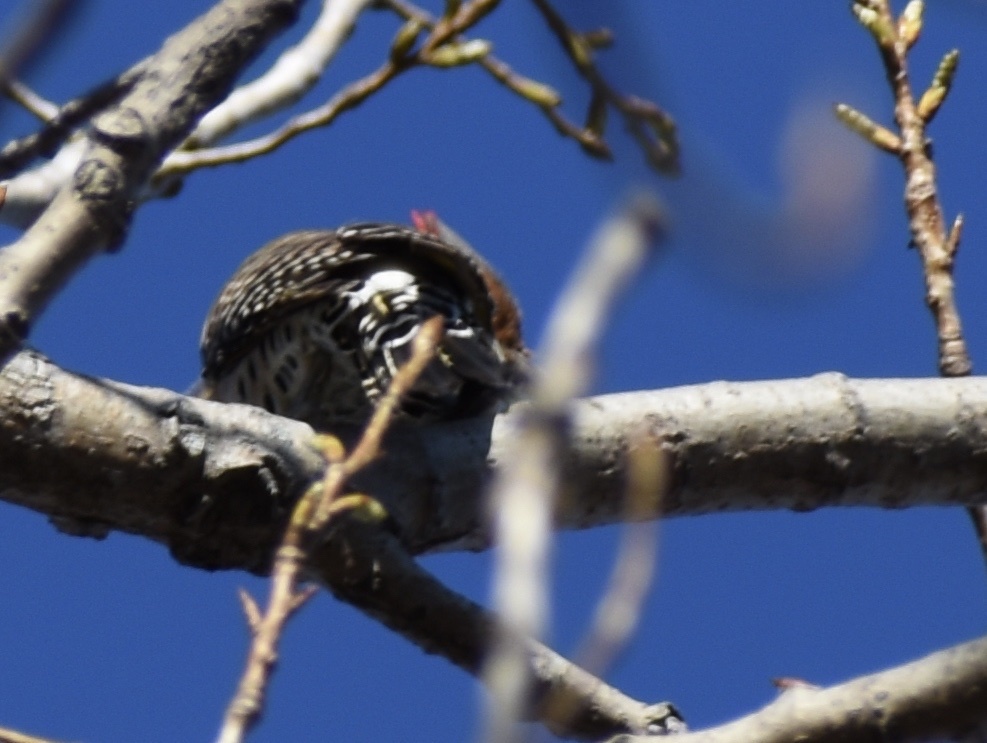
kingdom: Animalia
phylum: Chordata
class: Aves
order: Piciformes
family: Picidae
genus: Colaptes
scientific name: Colaptes auratus
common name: Northern flicker
